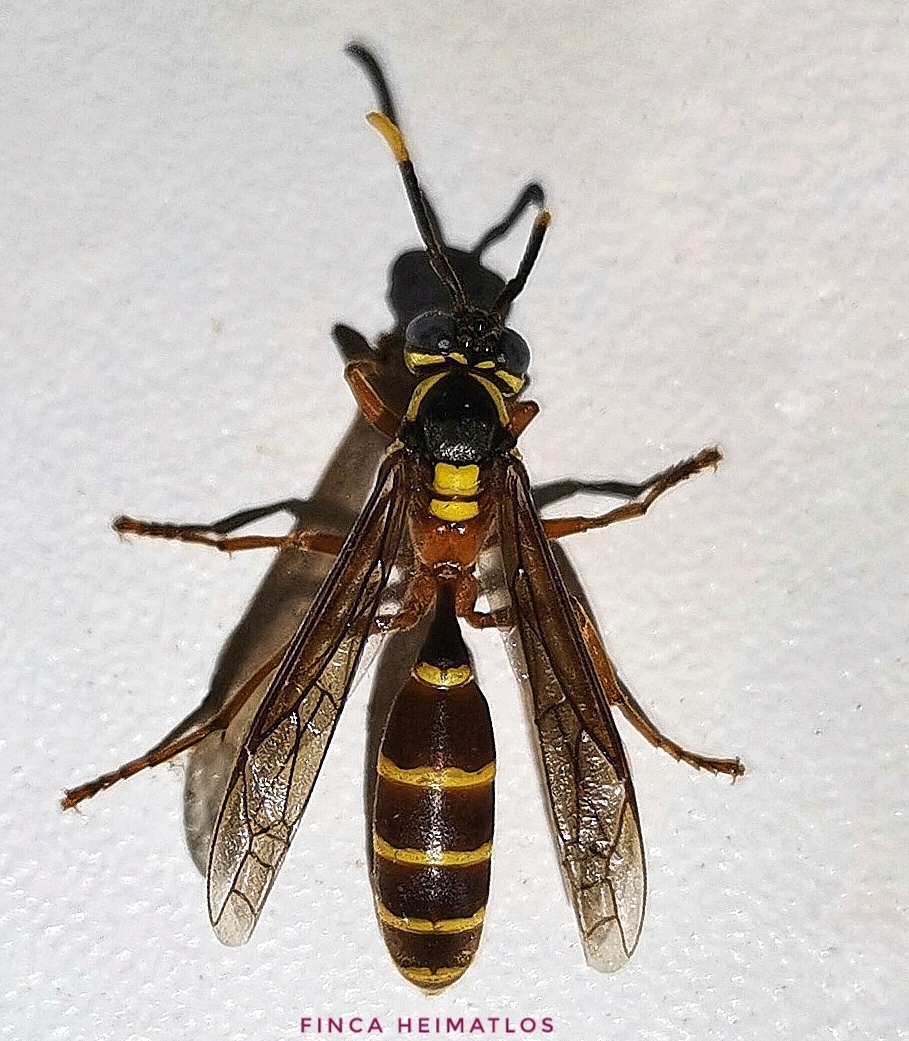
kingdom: Animalia
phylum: Arthropoda
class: Insecta
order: Hymenoptera
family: Vespidae
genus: Apoica
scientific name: Apoica arborea
